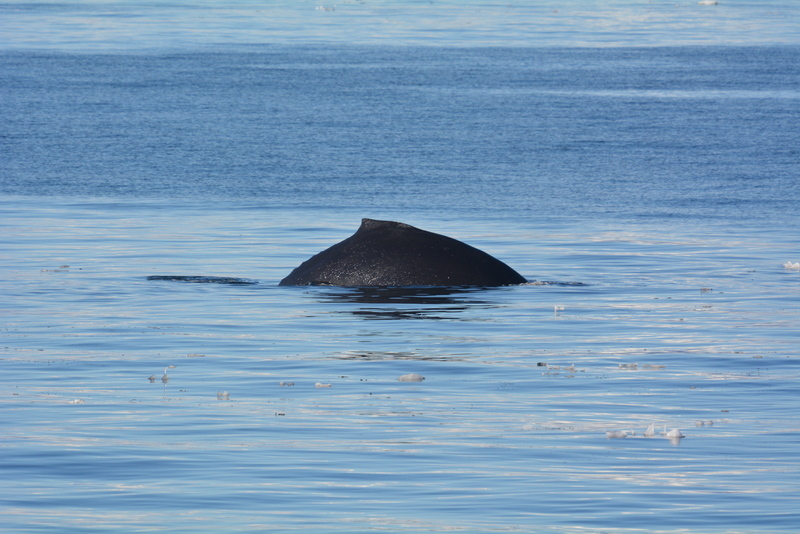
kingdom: Animalia
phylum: Chordata
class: Mammalia
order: Cetacea
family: Balaenopteridae
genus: Megaptera
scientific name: Megaptera novaeangliae
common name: Humpback whale
